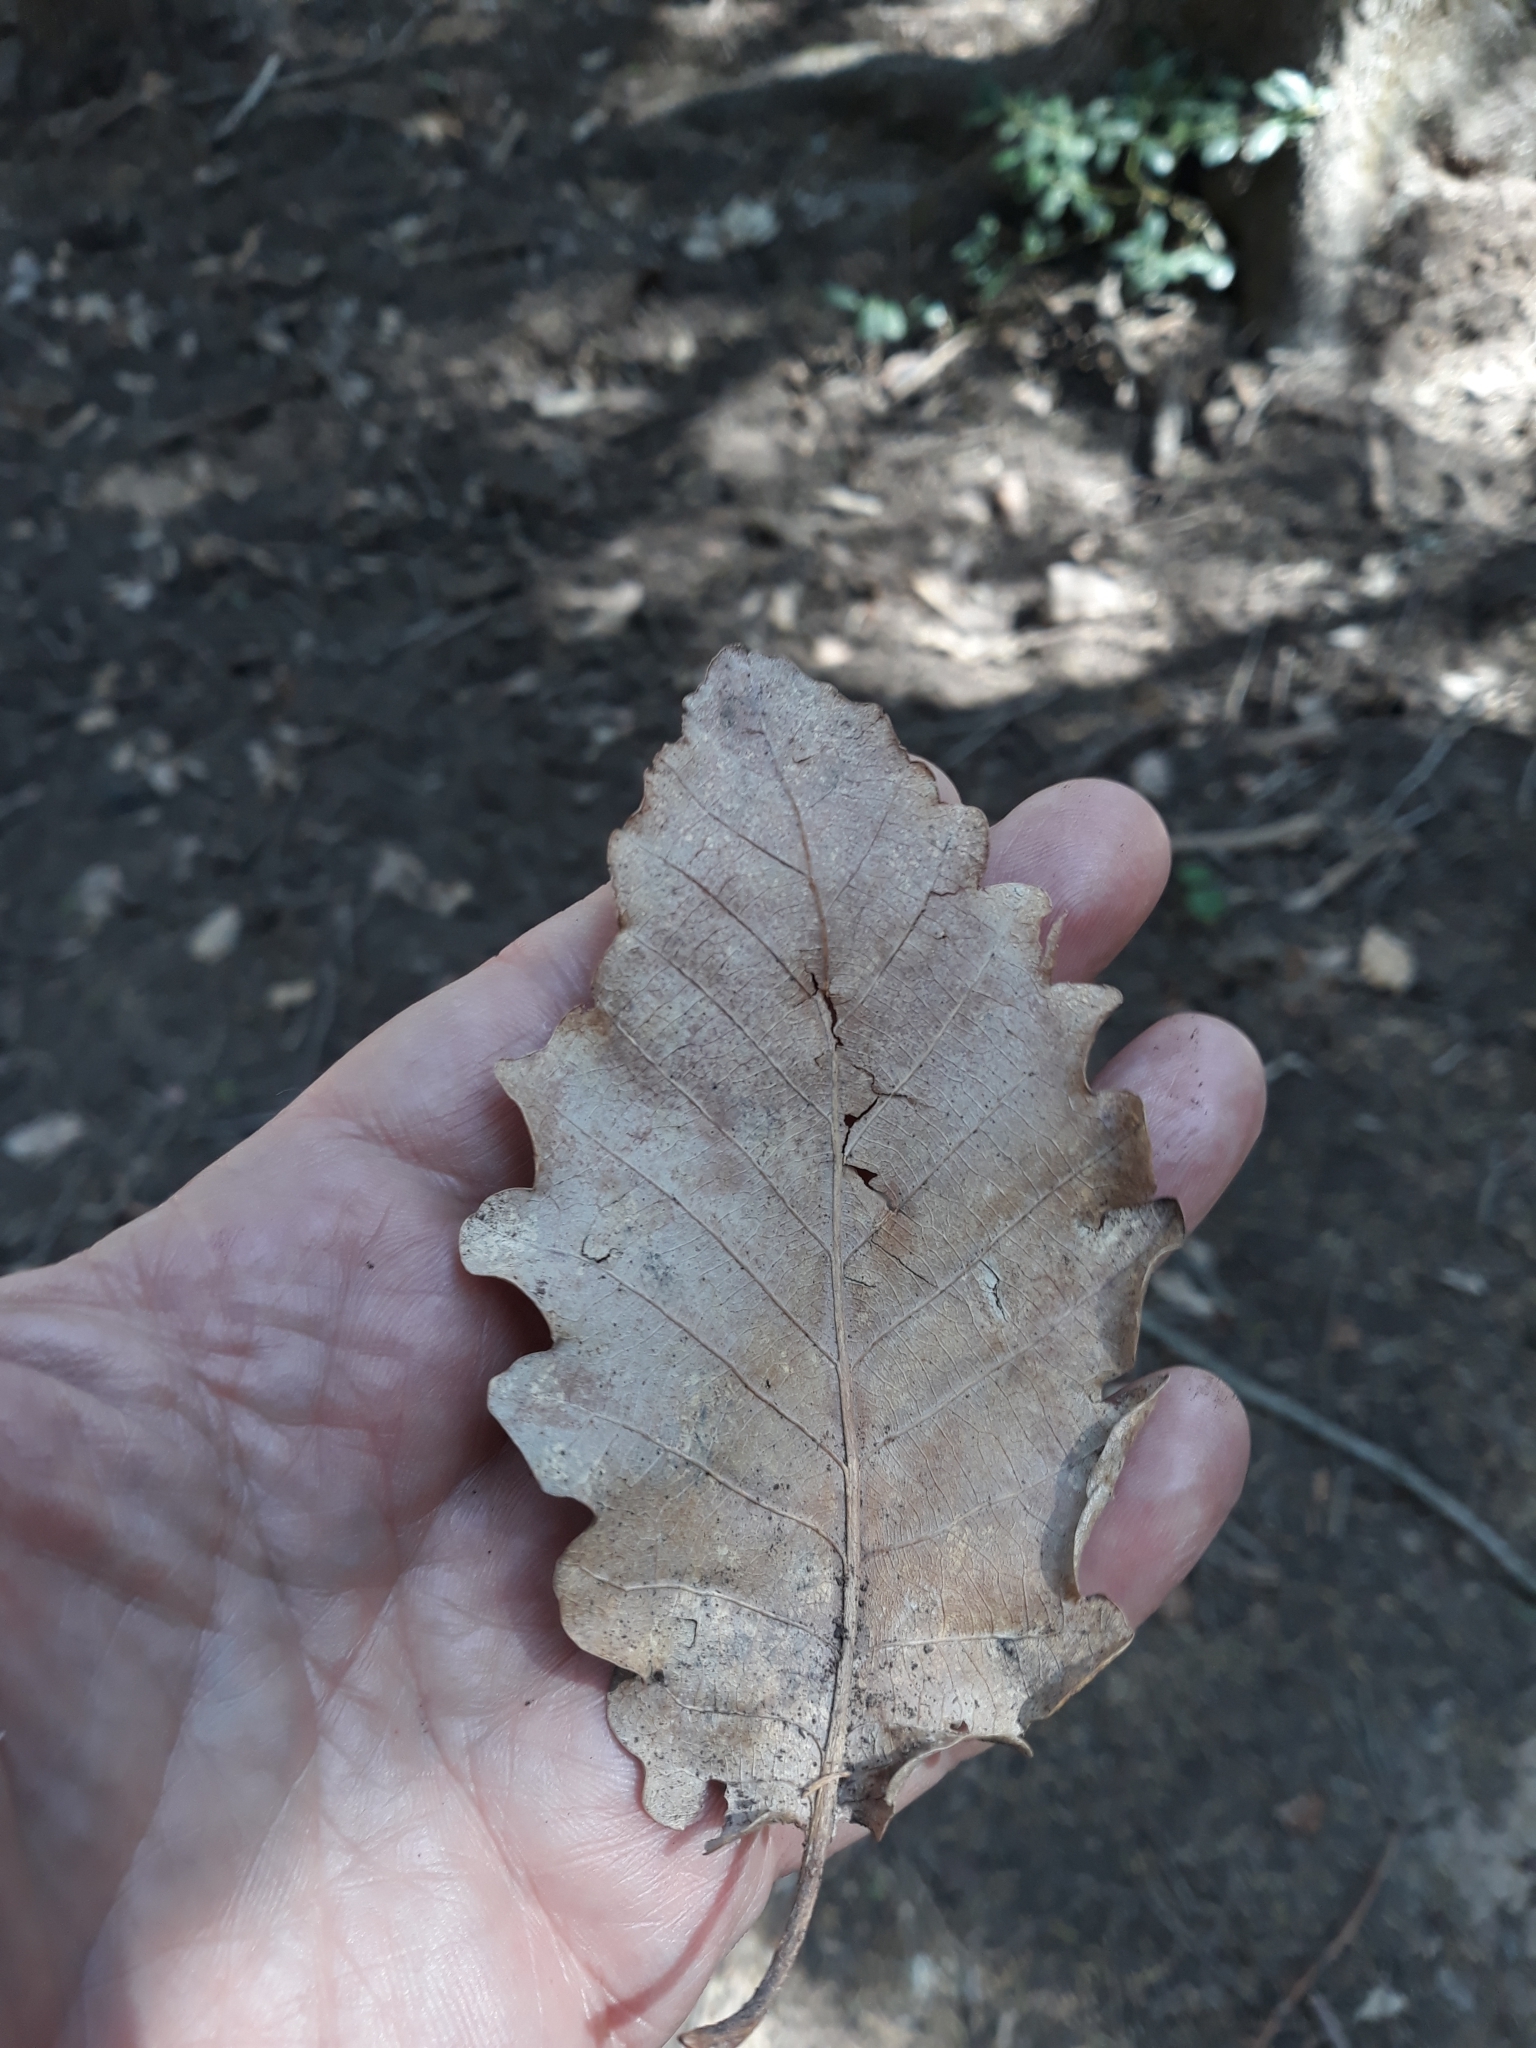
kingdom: Plantae
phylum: Tracheophyta
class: Magnoliopsida
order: Fagales
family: Fagaceae
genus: Quercus
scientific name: Quercus canariensis
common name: Algerian oak
